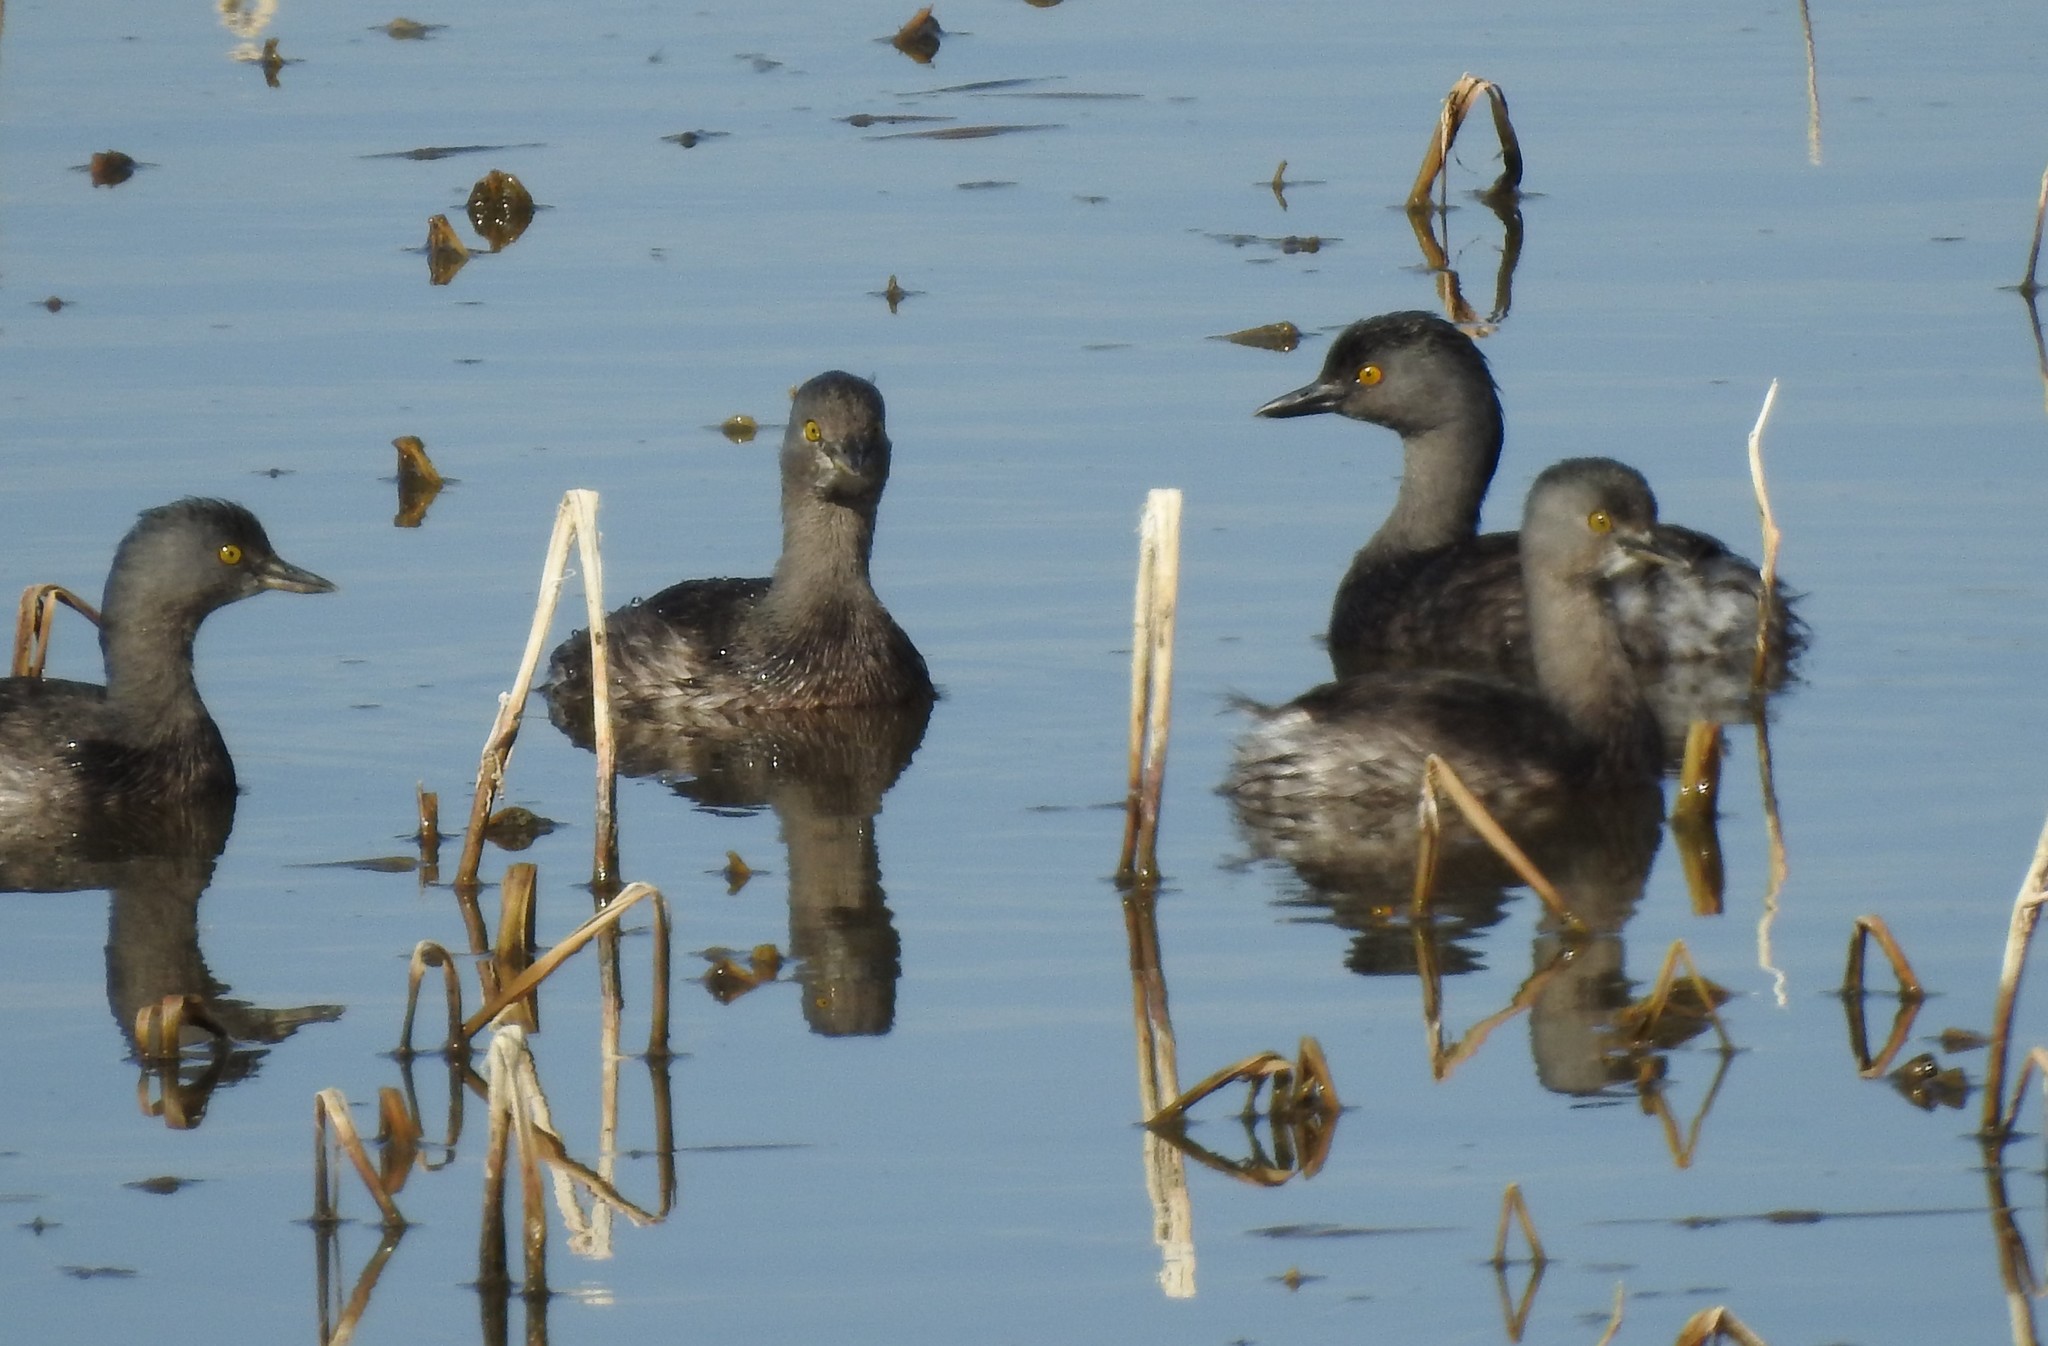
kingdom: Animalia
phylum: Chordata
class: Aves
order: Podicipediformes
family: Podicipedidae
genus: Tachybaptus
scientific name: Tachybaptus dominicus
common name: Least grebe
